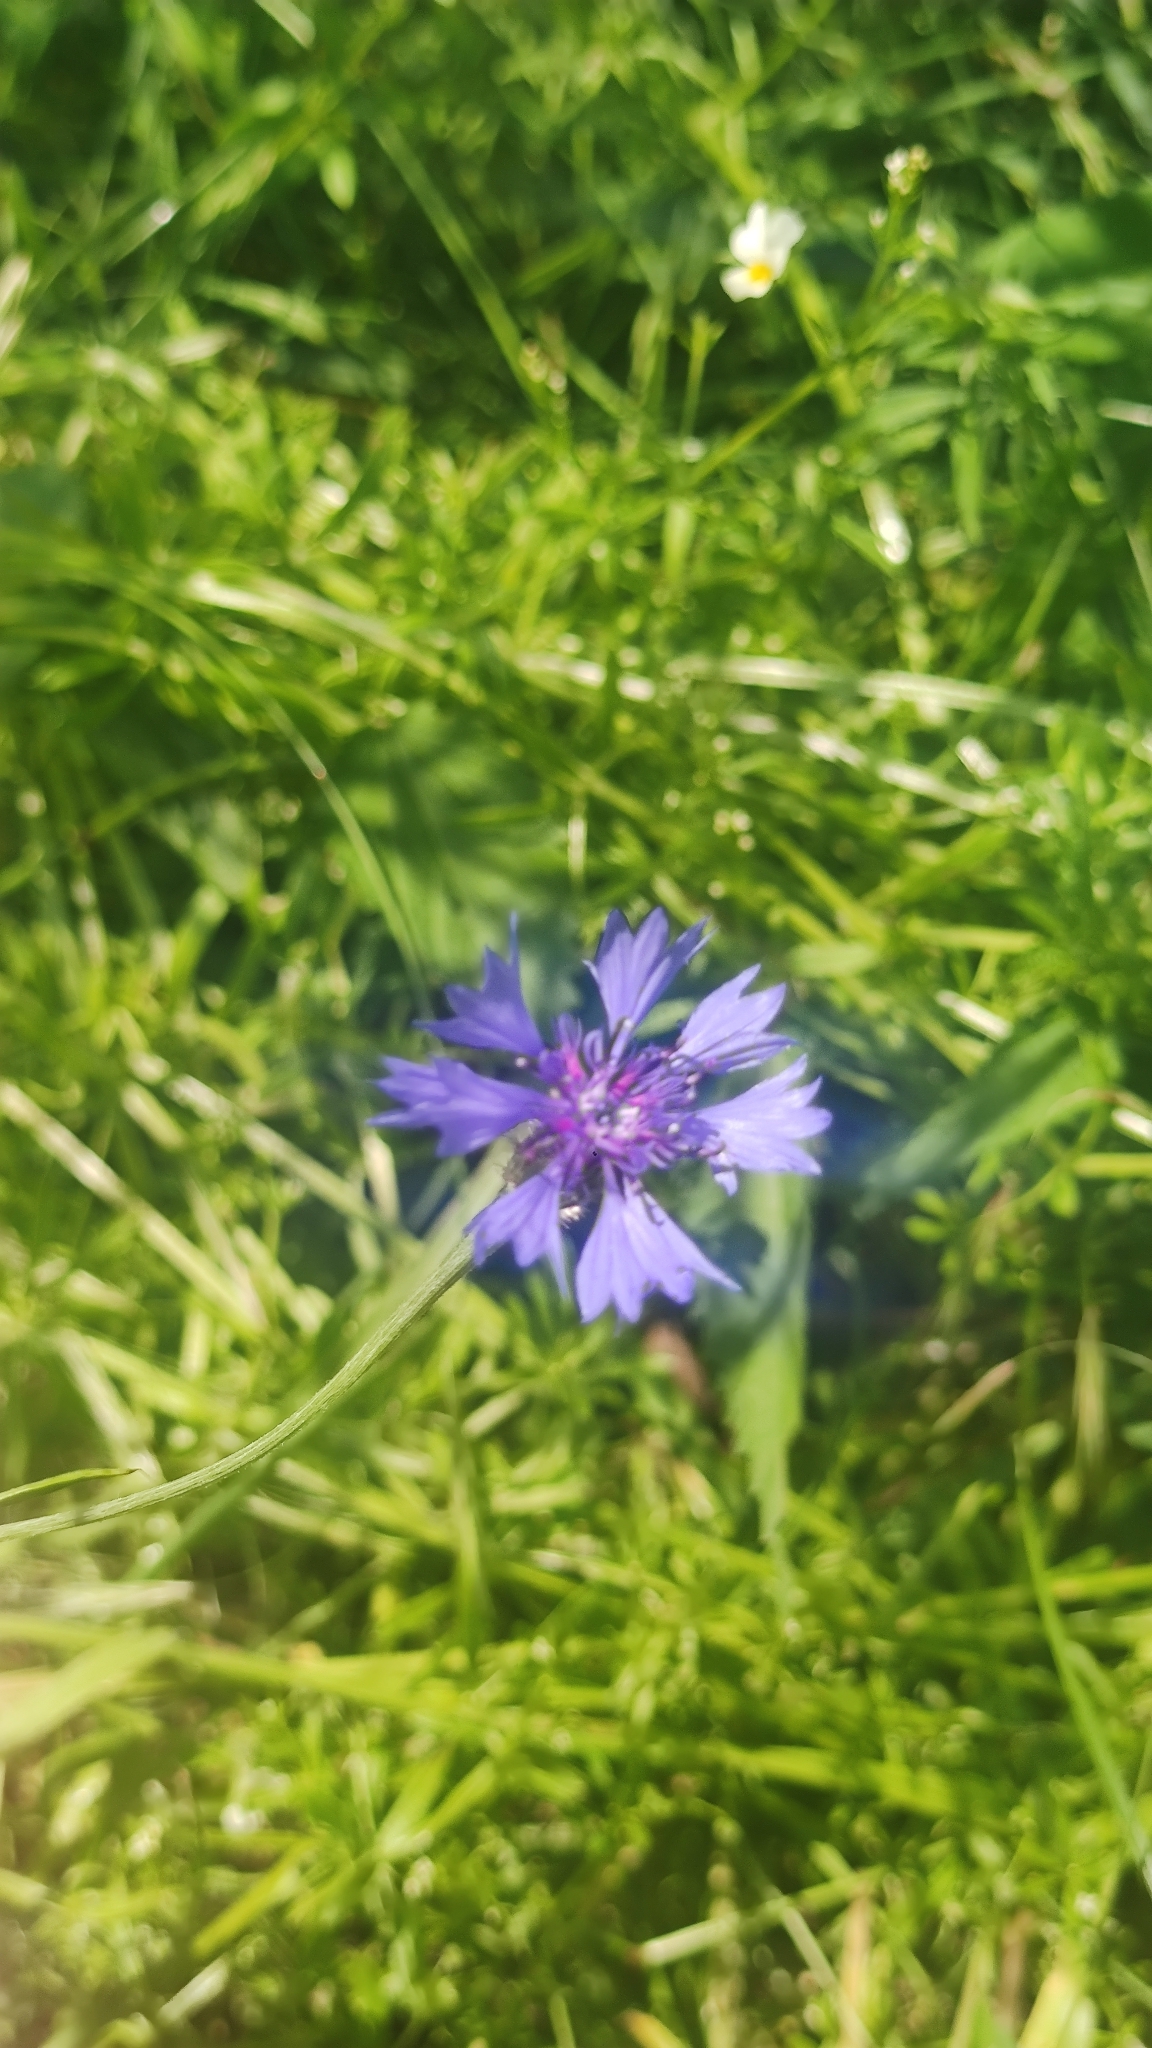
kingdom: Plantae
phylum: Tracheophyta
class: Magnoliopsida
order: Asterales
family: Asteraceae
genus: Centaurea
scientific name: Centaurea cyanus
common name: Cornflower
